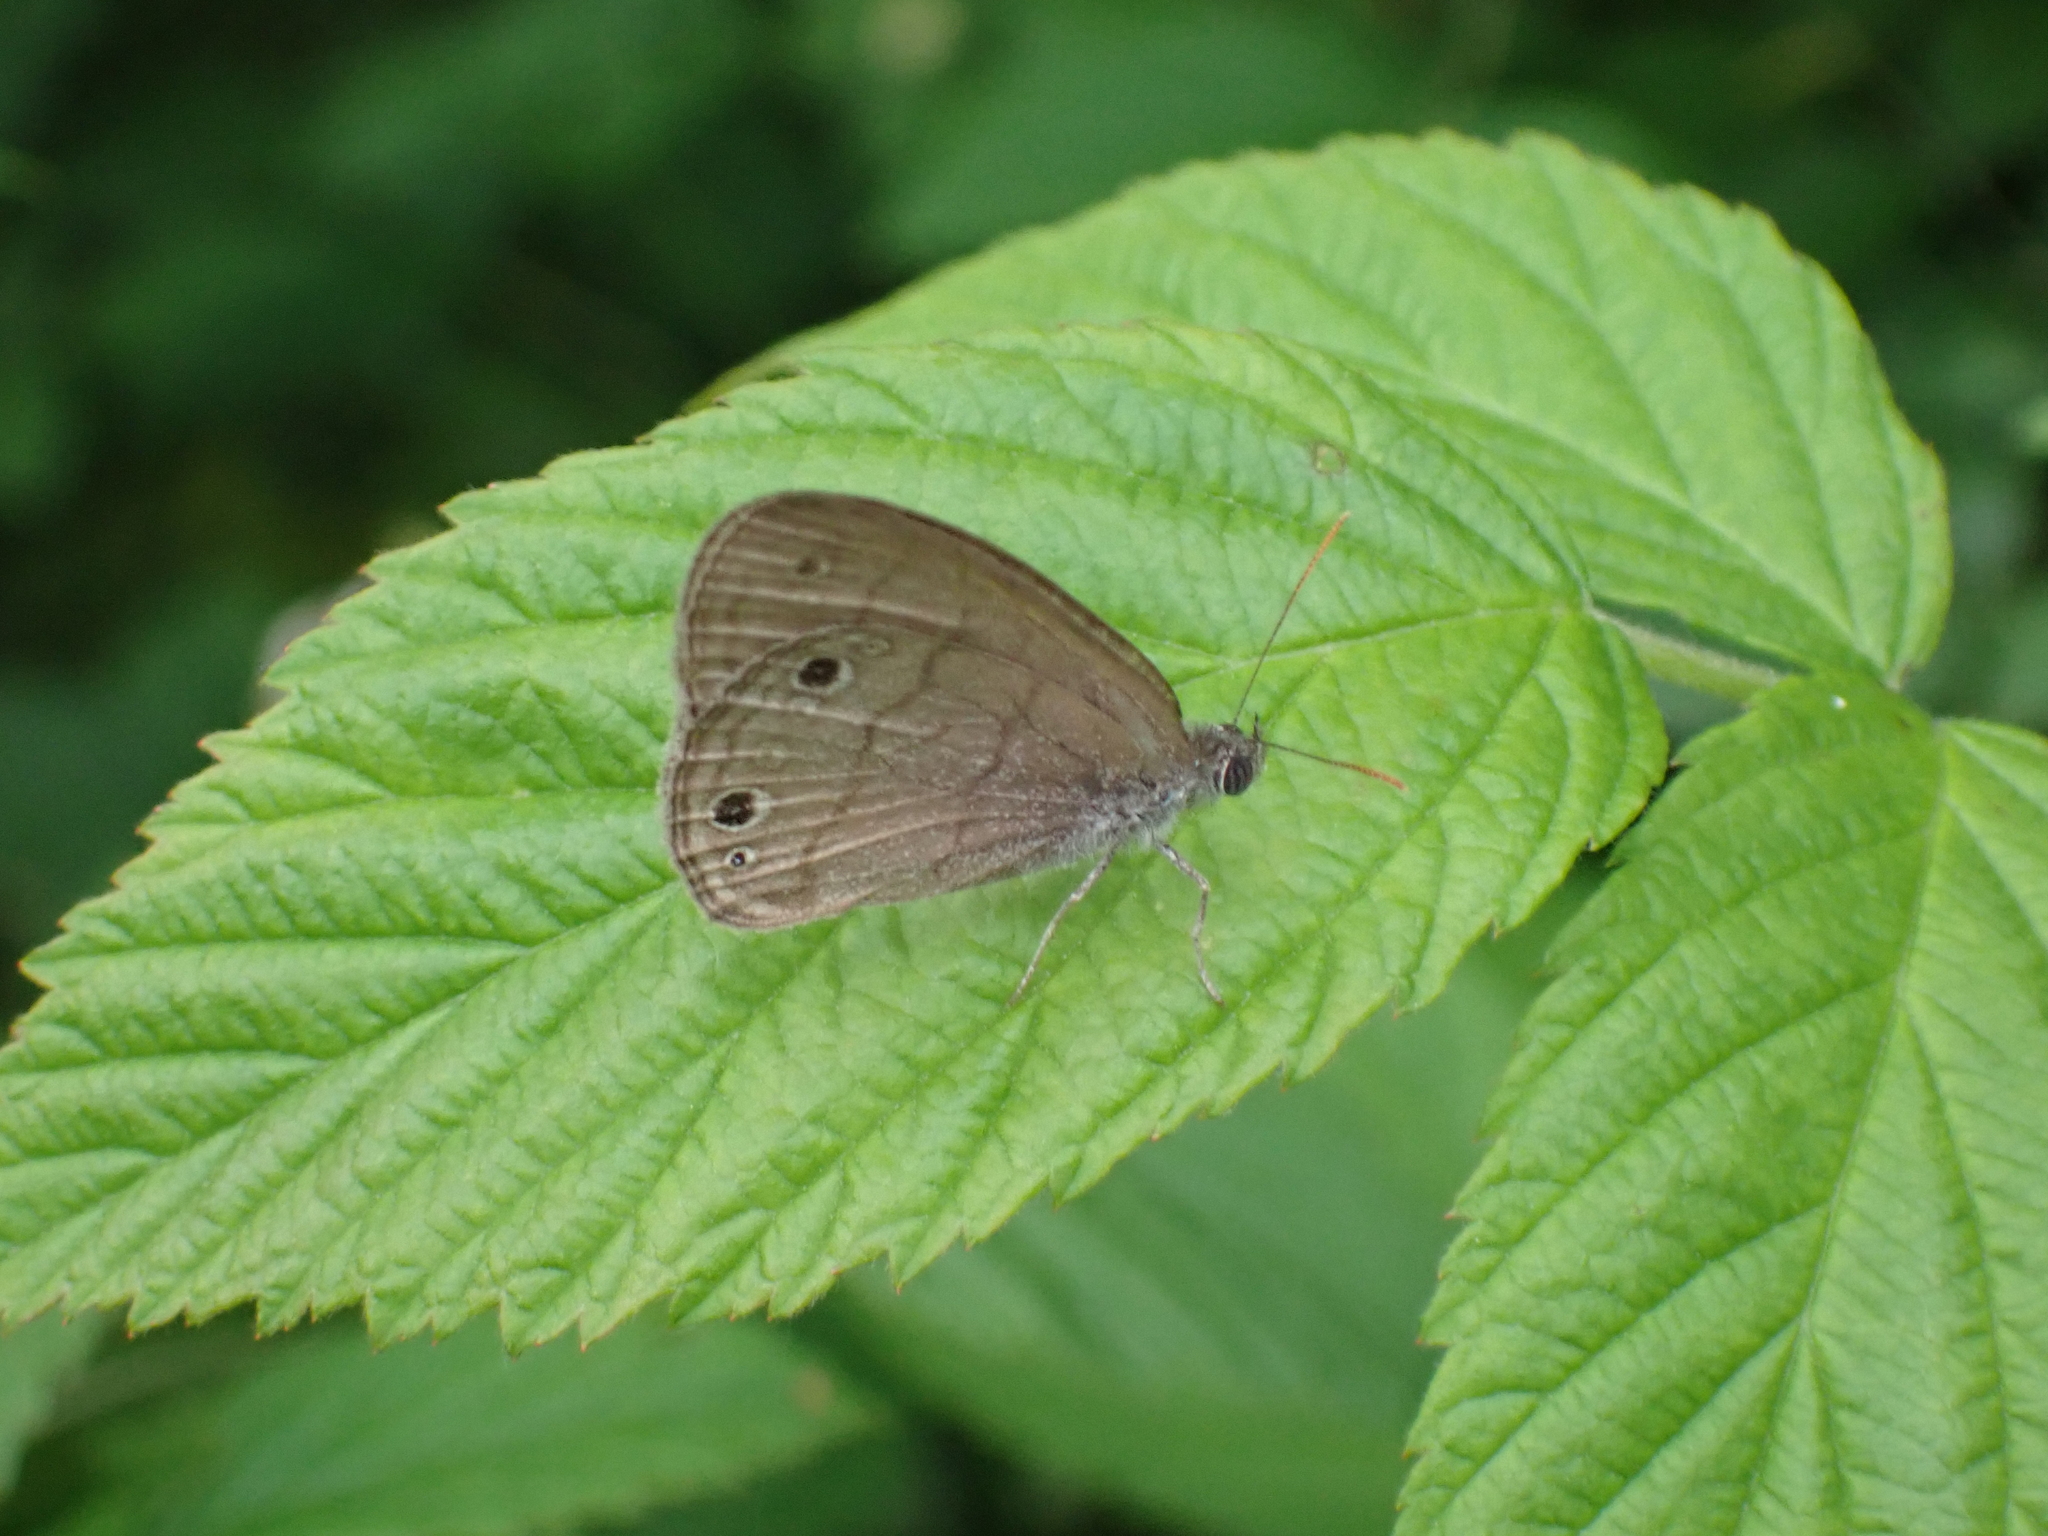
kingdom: Animalia
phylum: Arthropoda
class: Insecta
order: Lepidoptera
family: Nymphalidae
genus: Hermeuptychia
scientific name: Hermeuptychia hermes
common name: Hermes satyr
